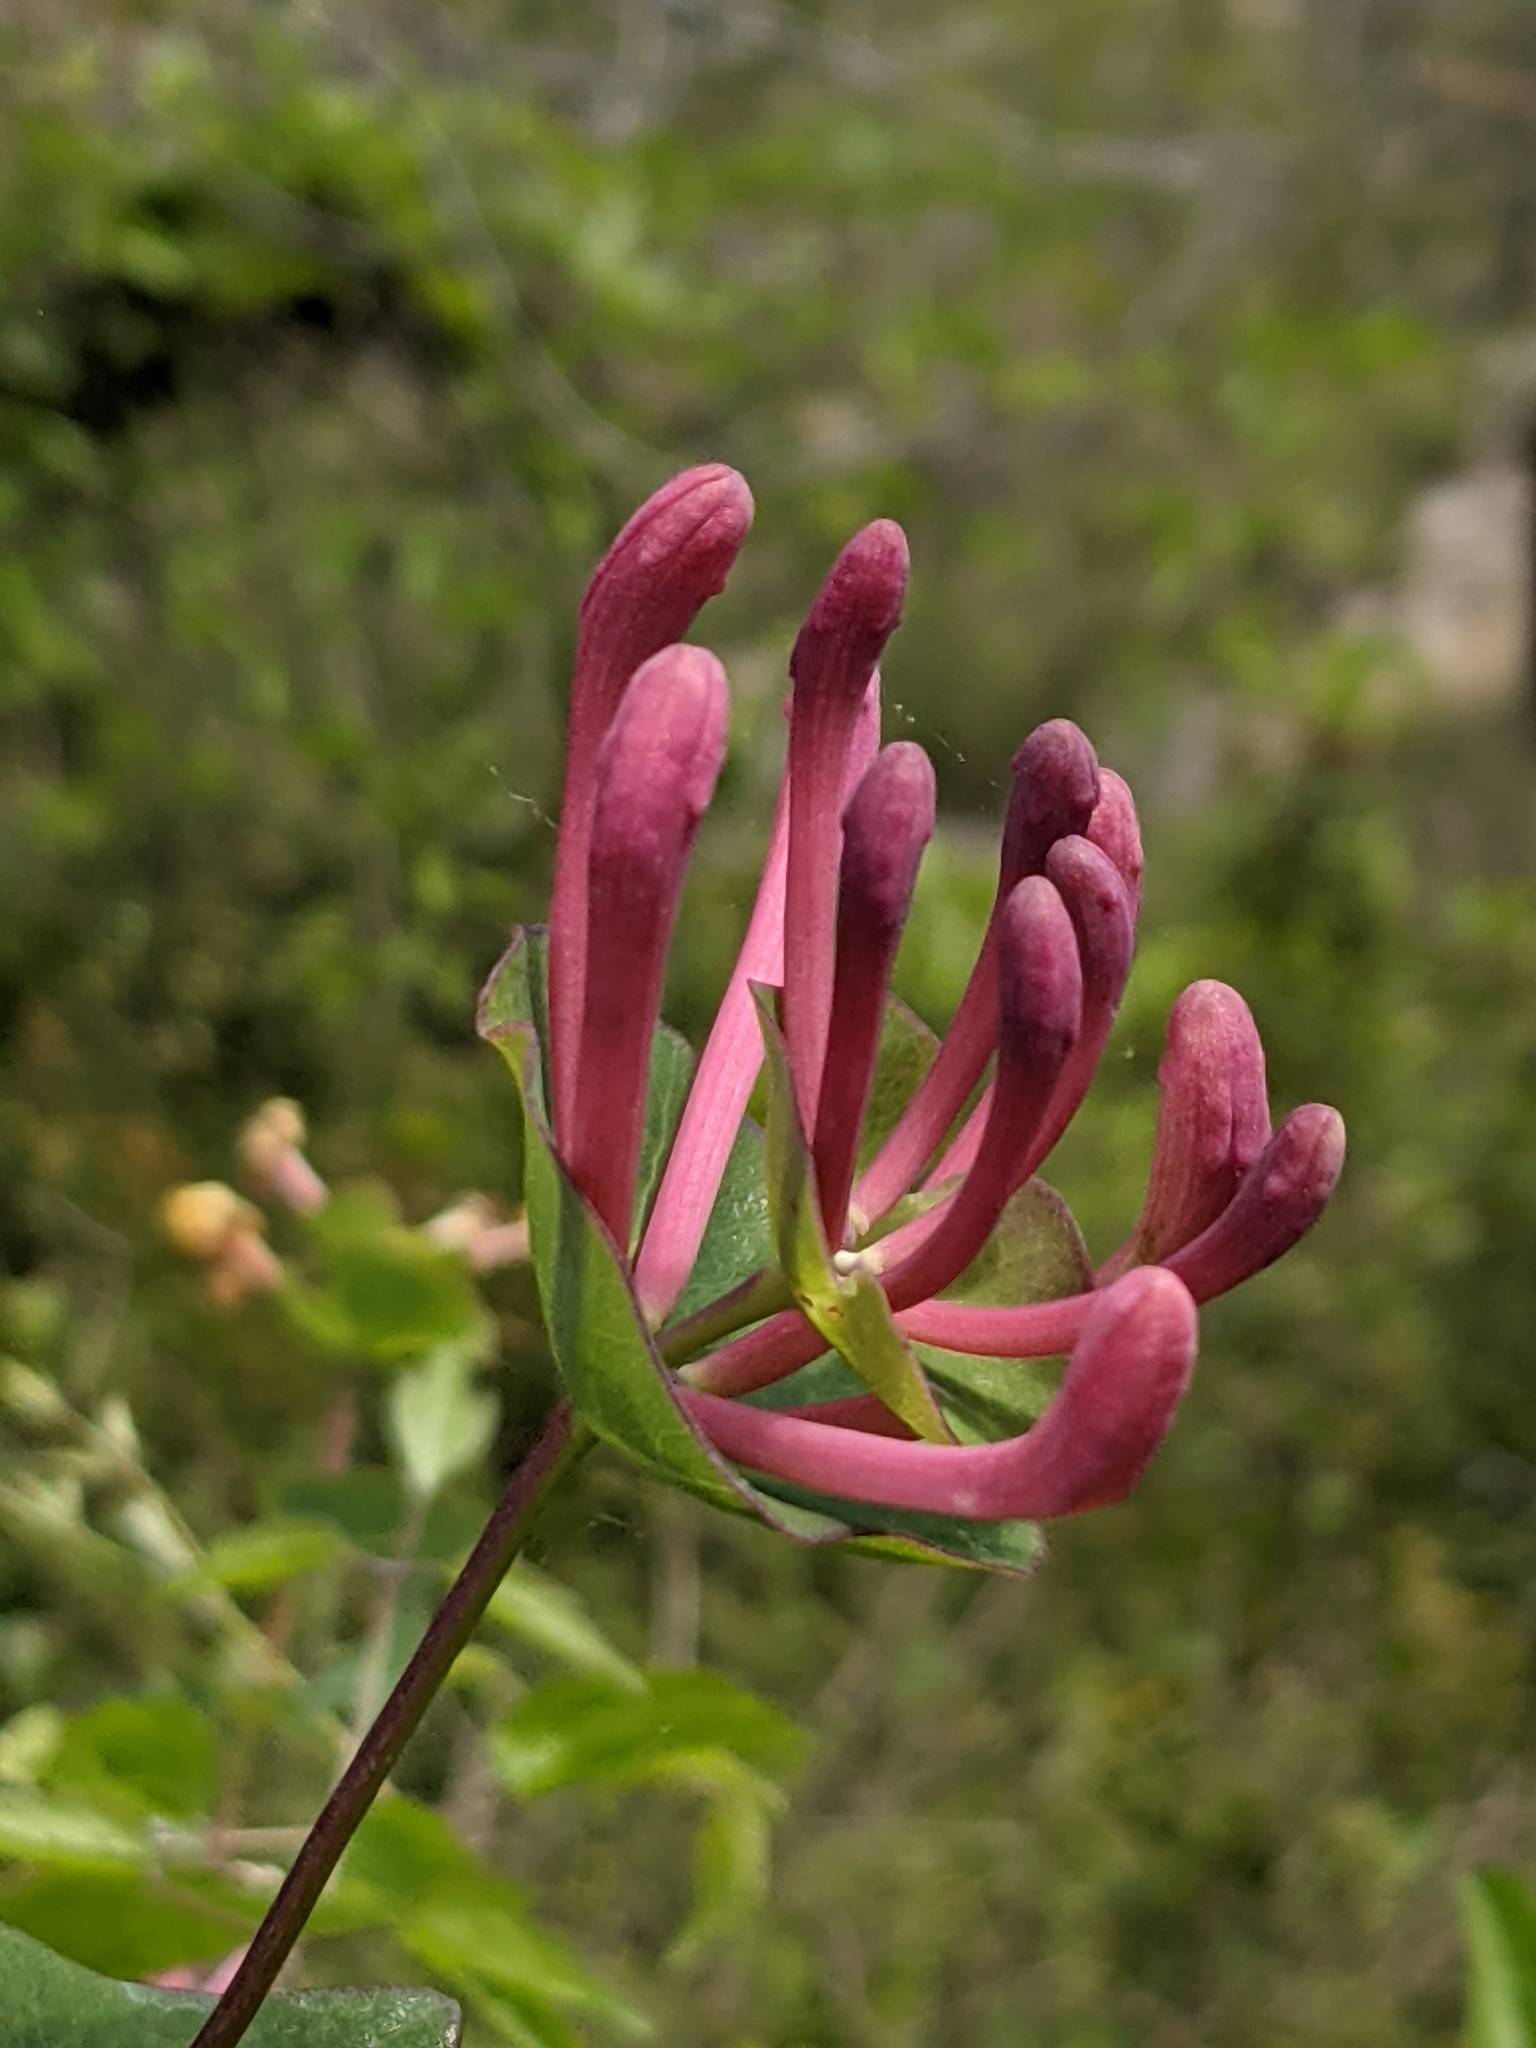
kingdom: Plantae
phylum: Tracheophyta
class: Magnoliopsida
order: Dipsacales
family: Caprifoliaceae
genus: Lonicera
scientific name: Lonicera implexa
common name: Minorca honeysuckle
